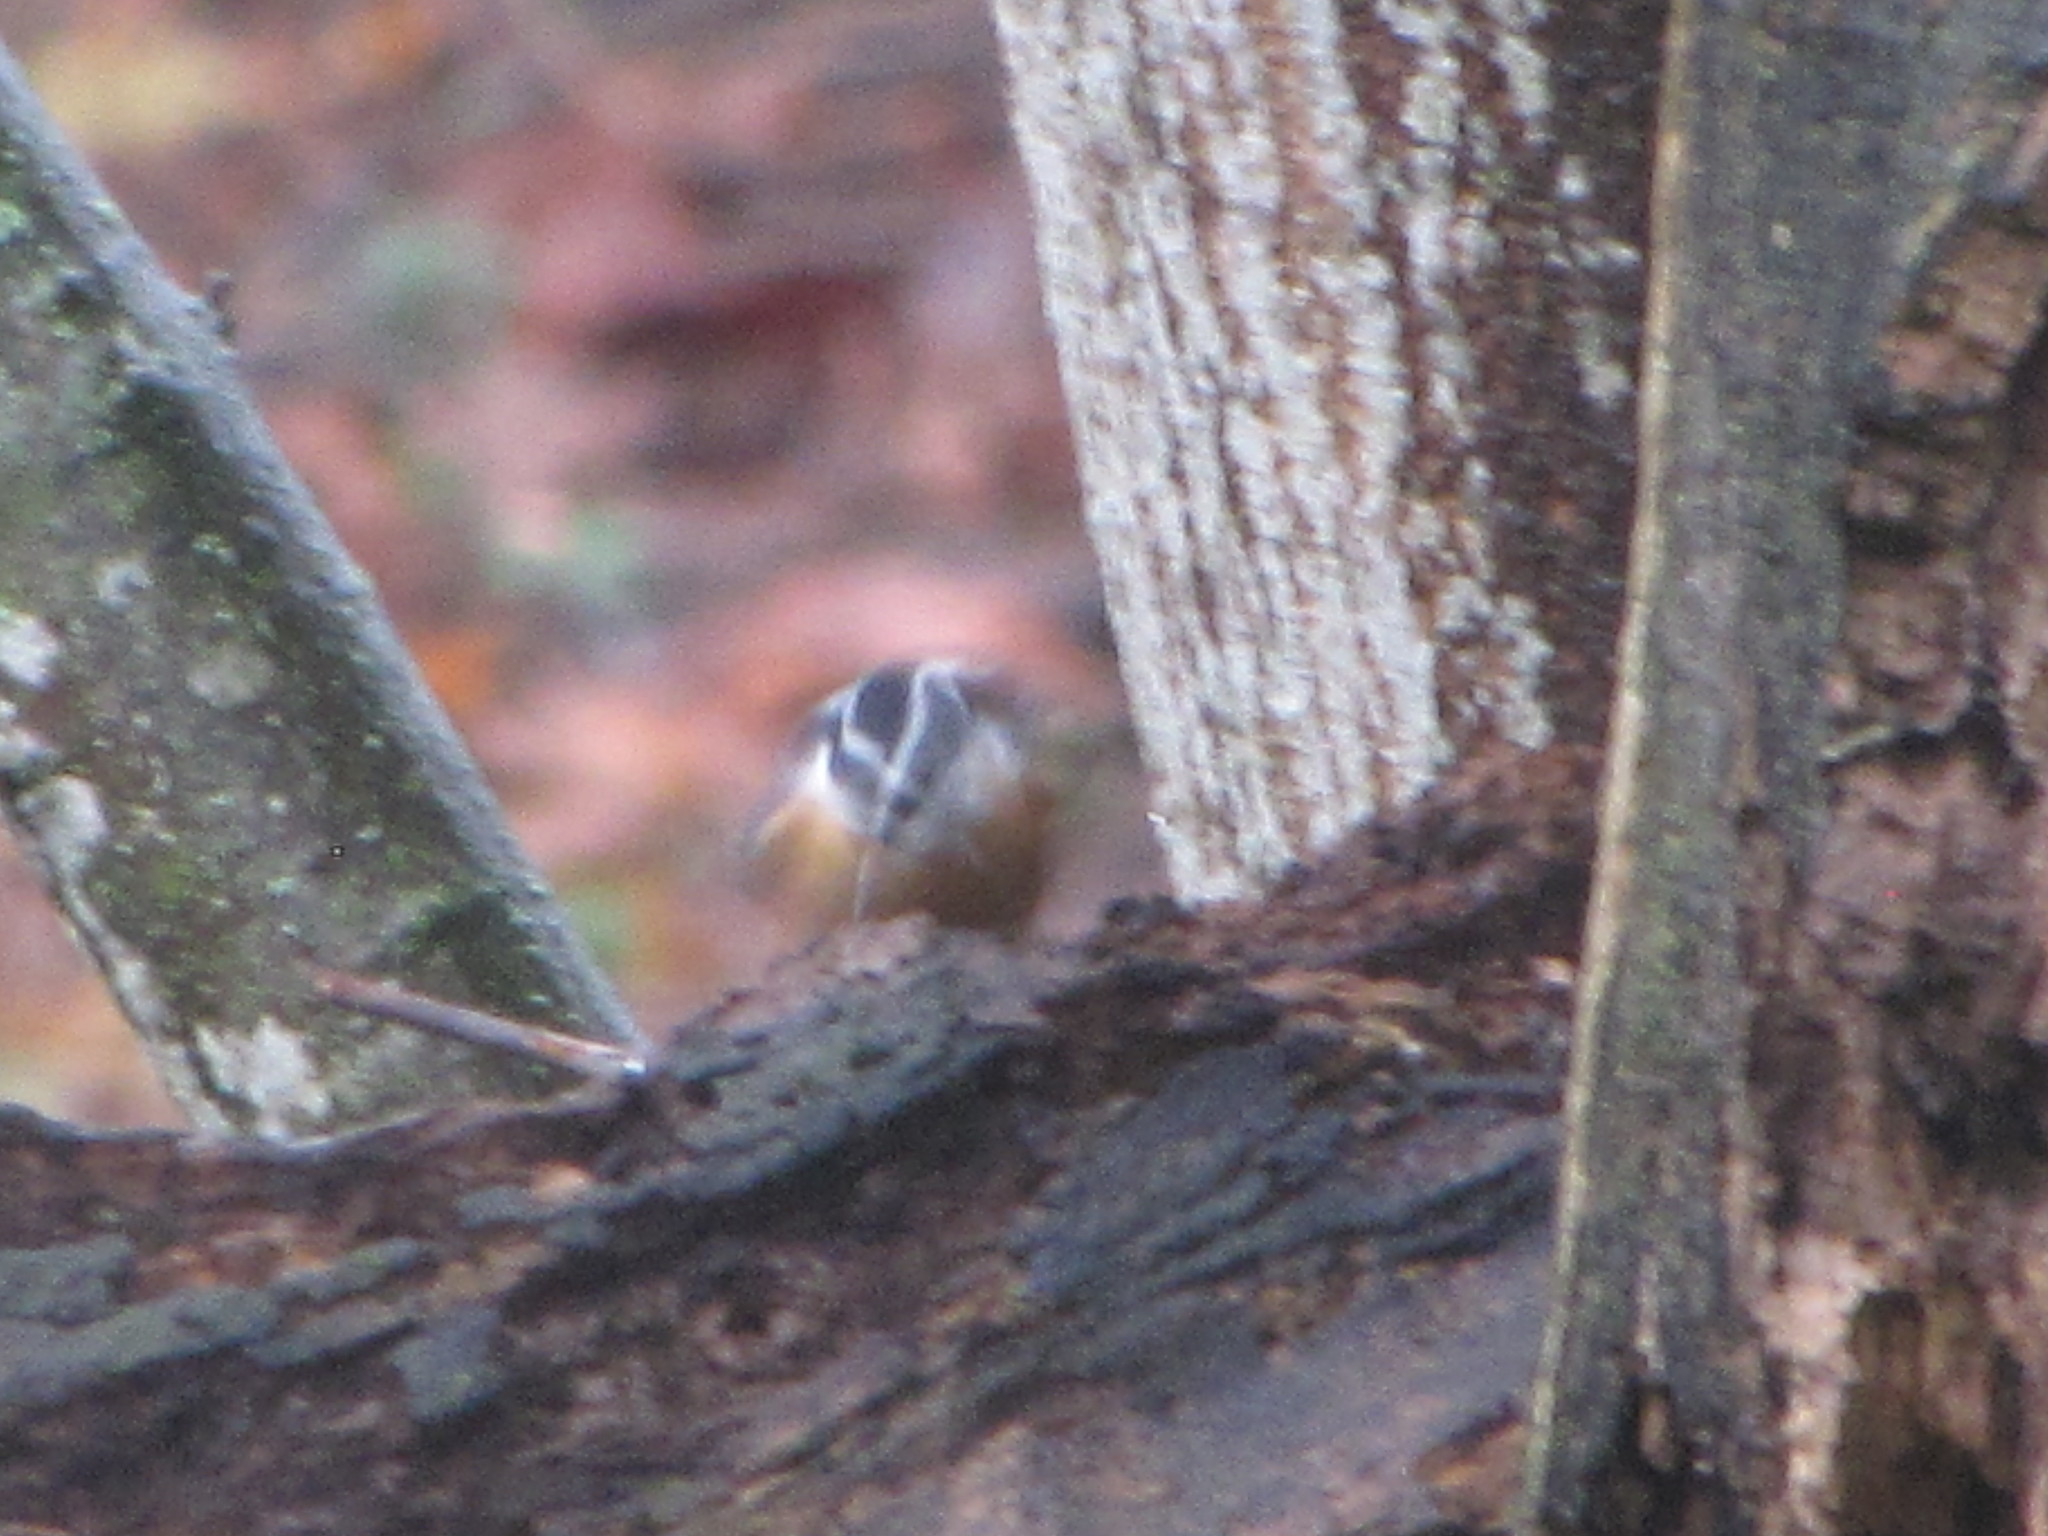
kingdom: Animalia
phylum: Chordata
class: Aves
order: Passeriformes
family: Sittidae
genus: Sitta
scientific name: Sitta canadensis
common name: Red-breasted nuthatch
